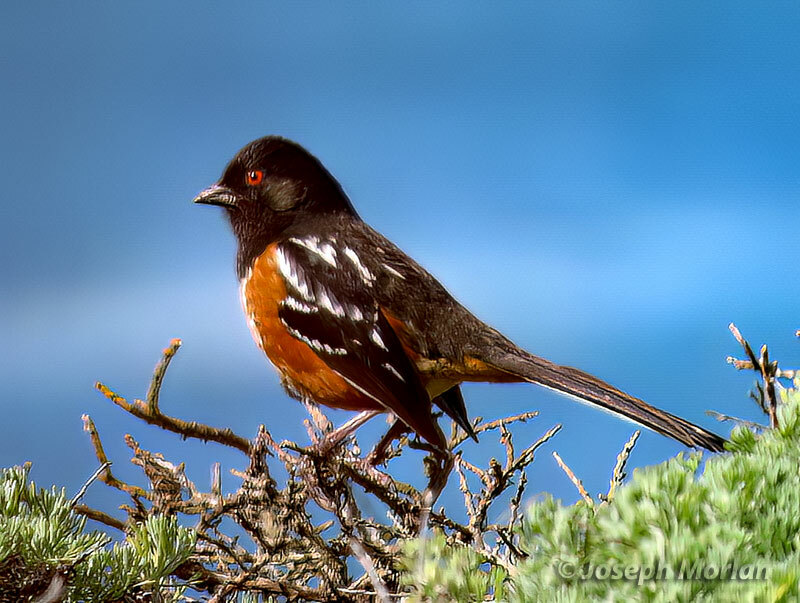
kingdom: Animalia
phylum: Chordata
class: Aves
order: Passeriformes
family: Passerellidae
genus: Pipilo
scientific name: Pipilo maculatus
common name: Spotted towhee
